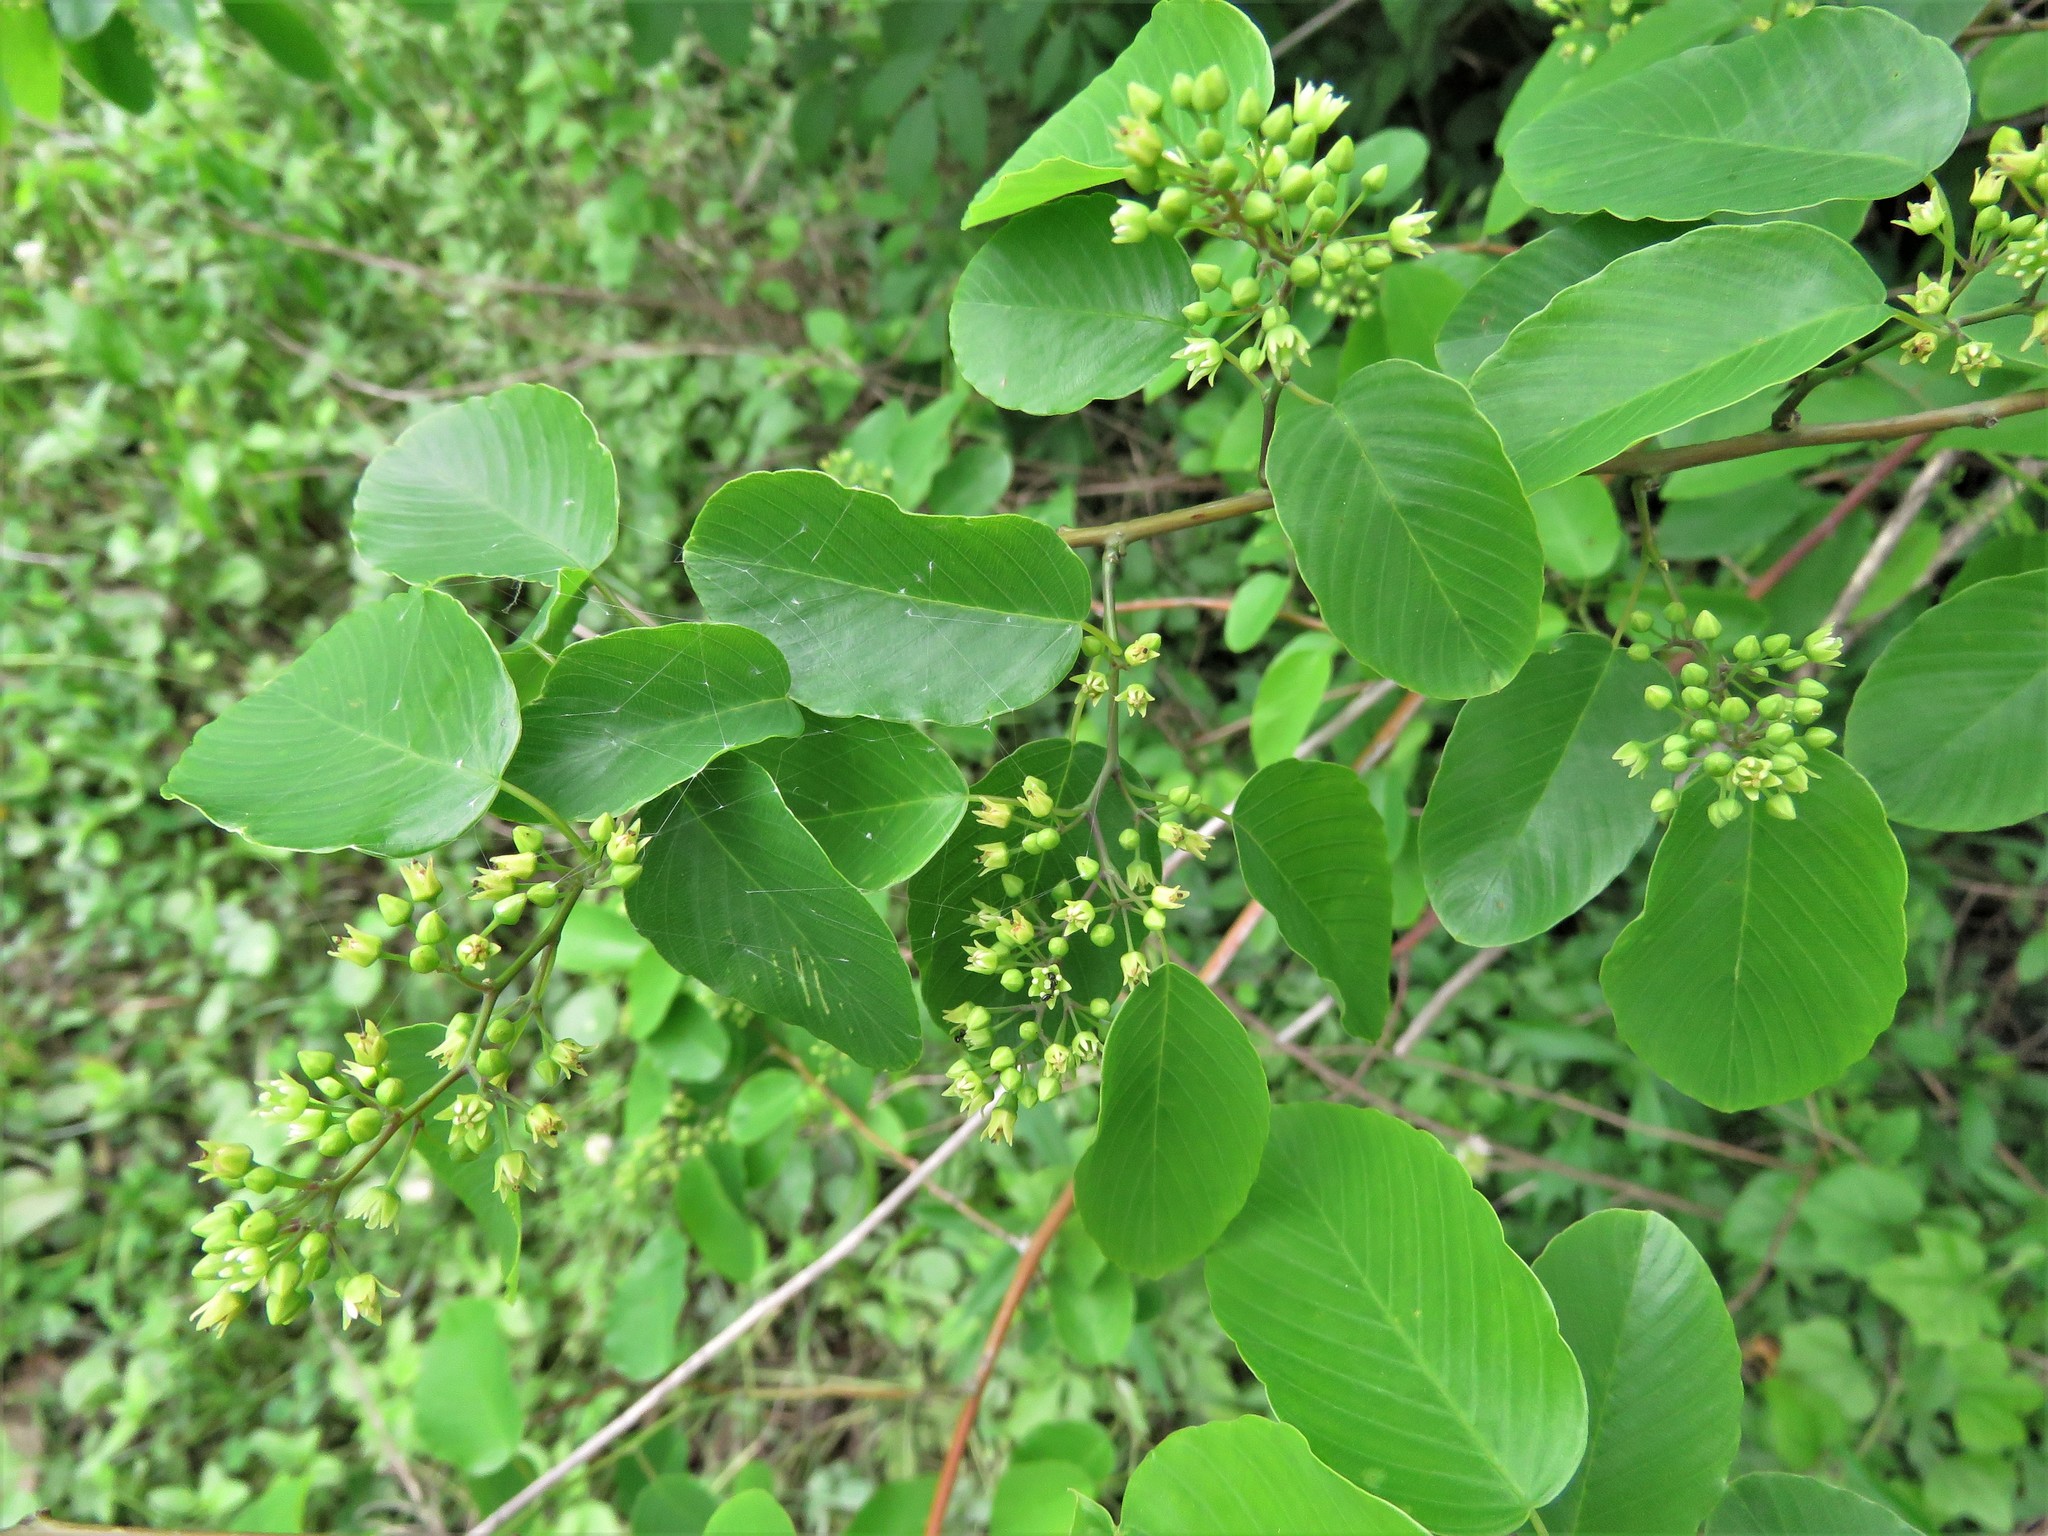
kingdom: Plantae
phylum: Tracheophyta
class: Magnoliopsida
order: Rosales
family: Rhamnaceae
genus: Berchemia
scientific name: Berchemia scandens
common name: Supplejack
